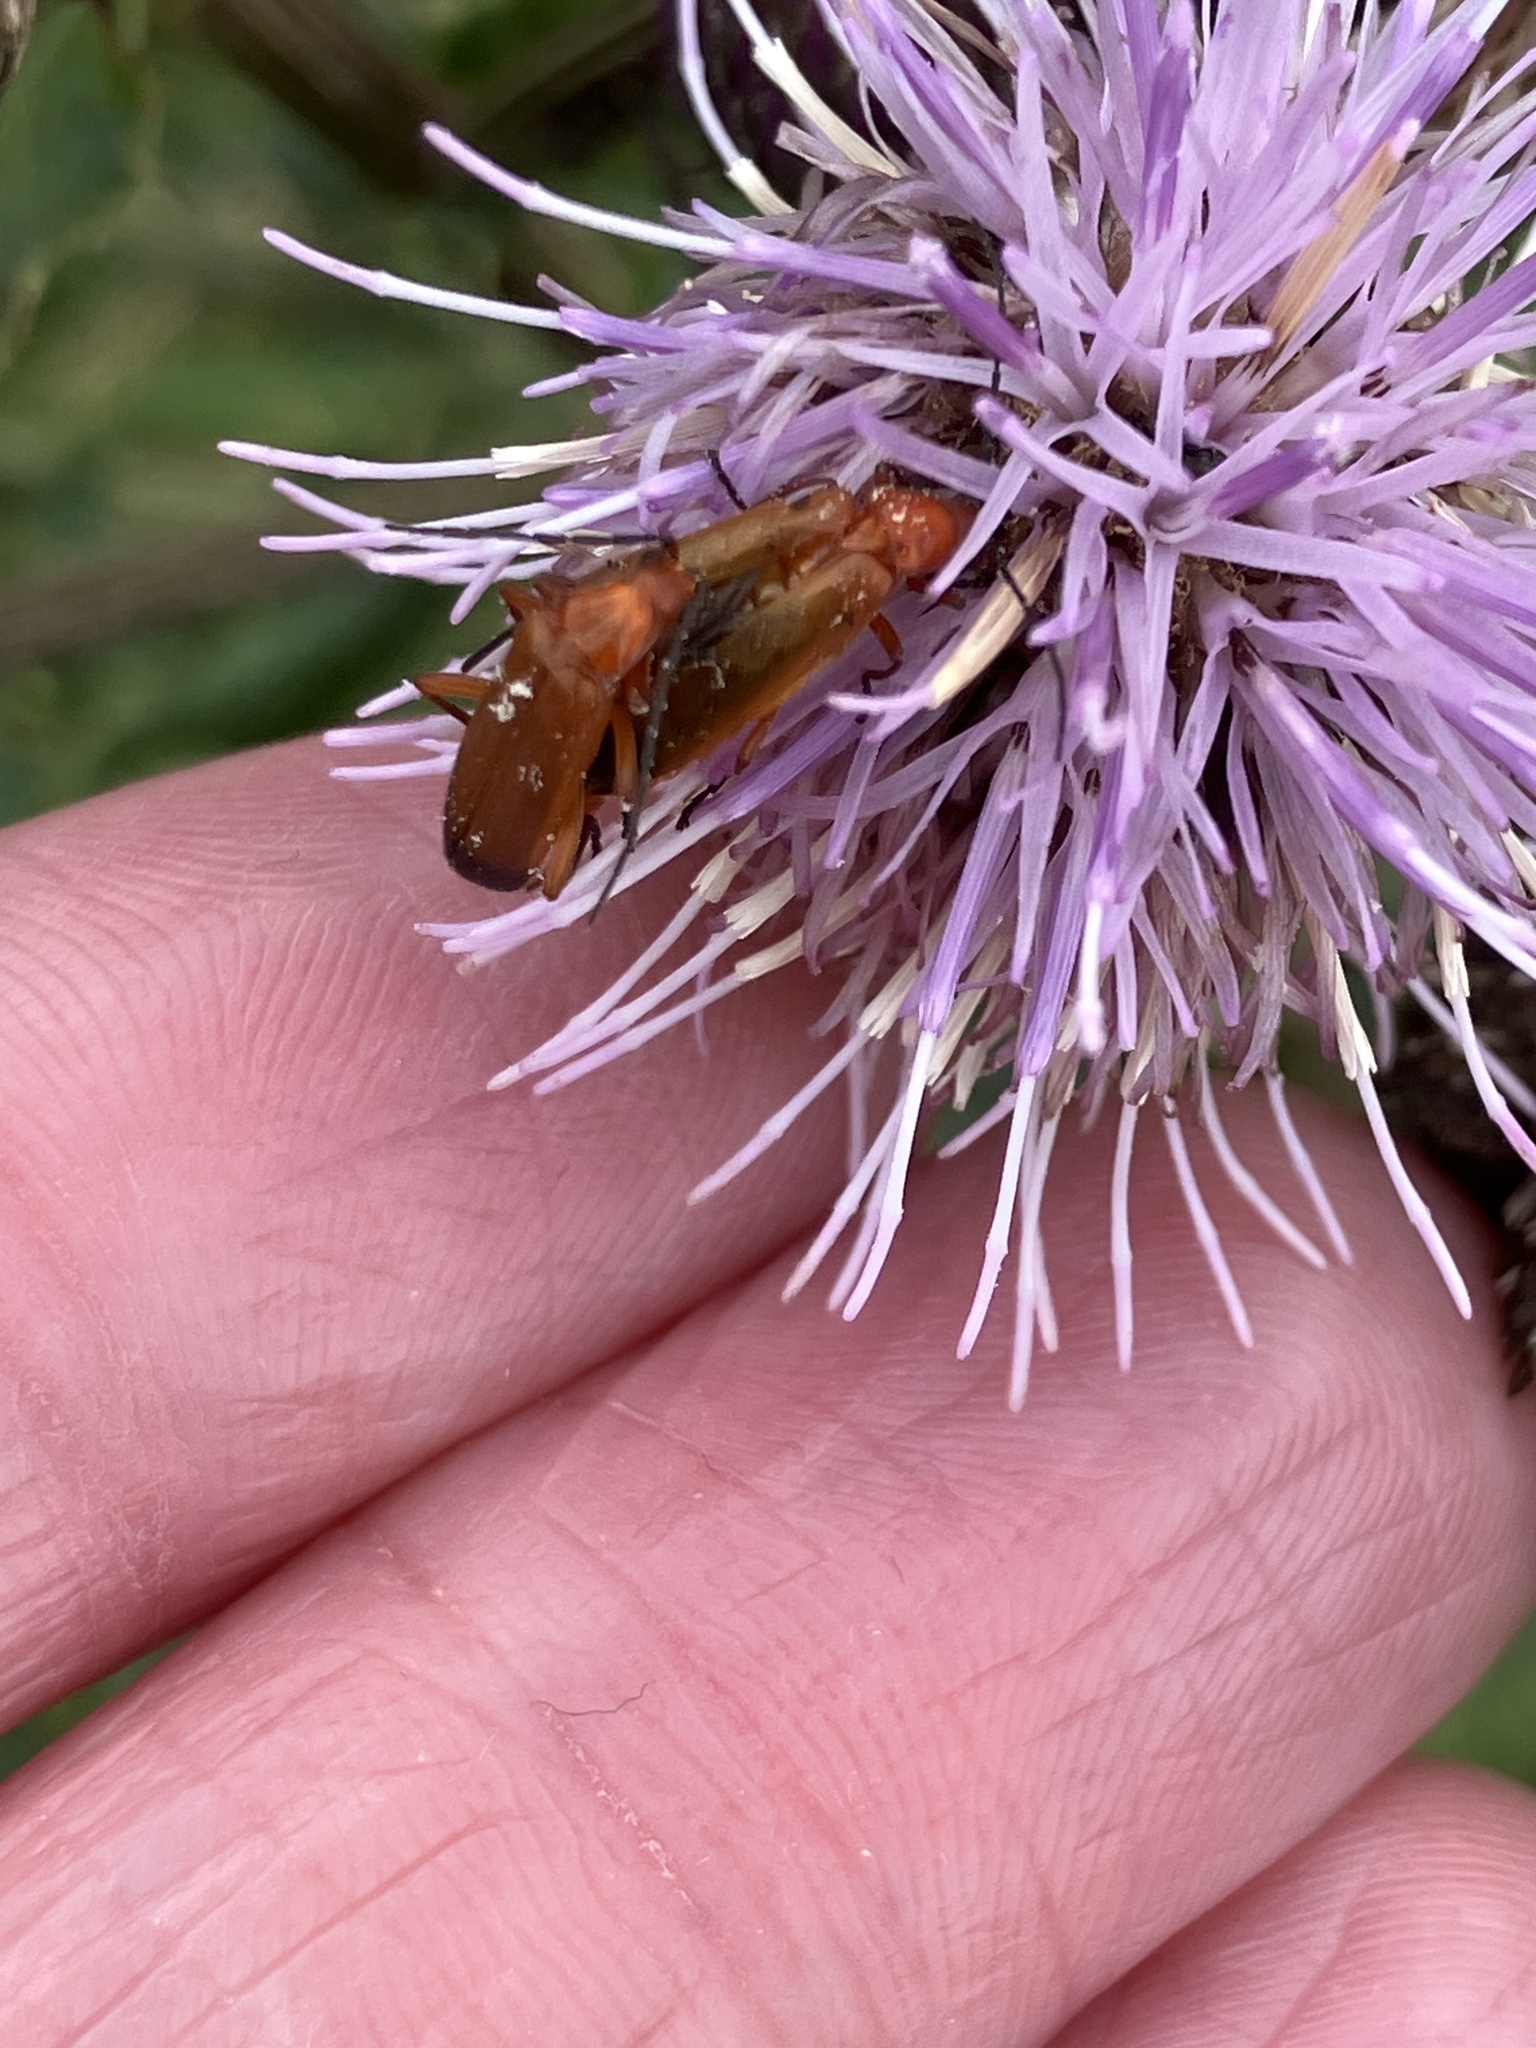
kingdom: Animalia
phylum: Arthropoda
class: Insecta
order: Coleoptera
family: Cantharidae
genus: Rhagonycha
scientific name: Rhagonycha fulva
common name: Common red soldier beetle
